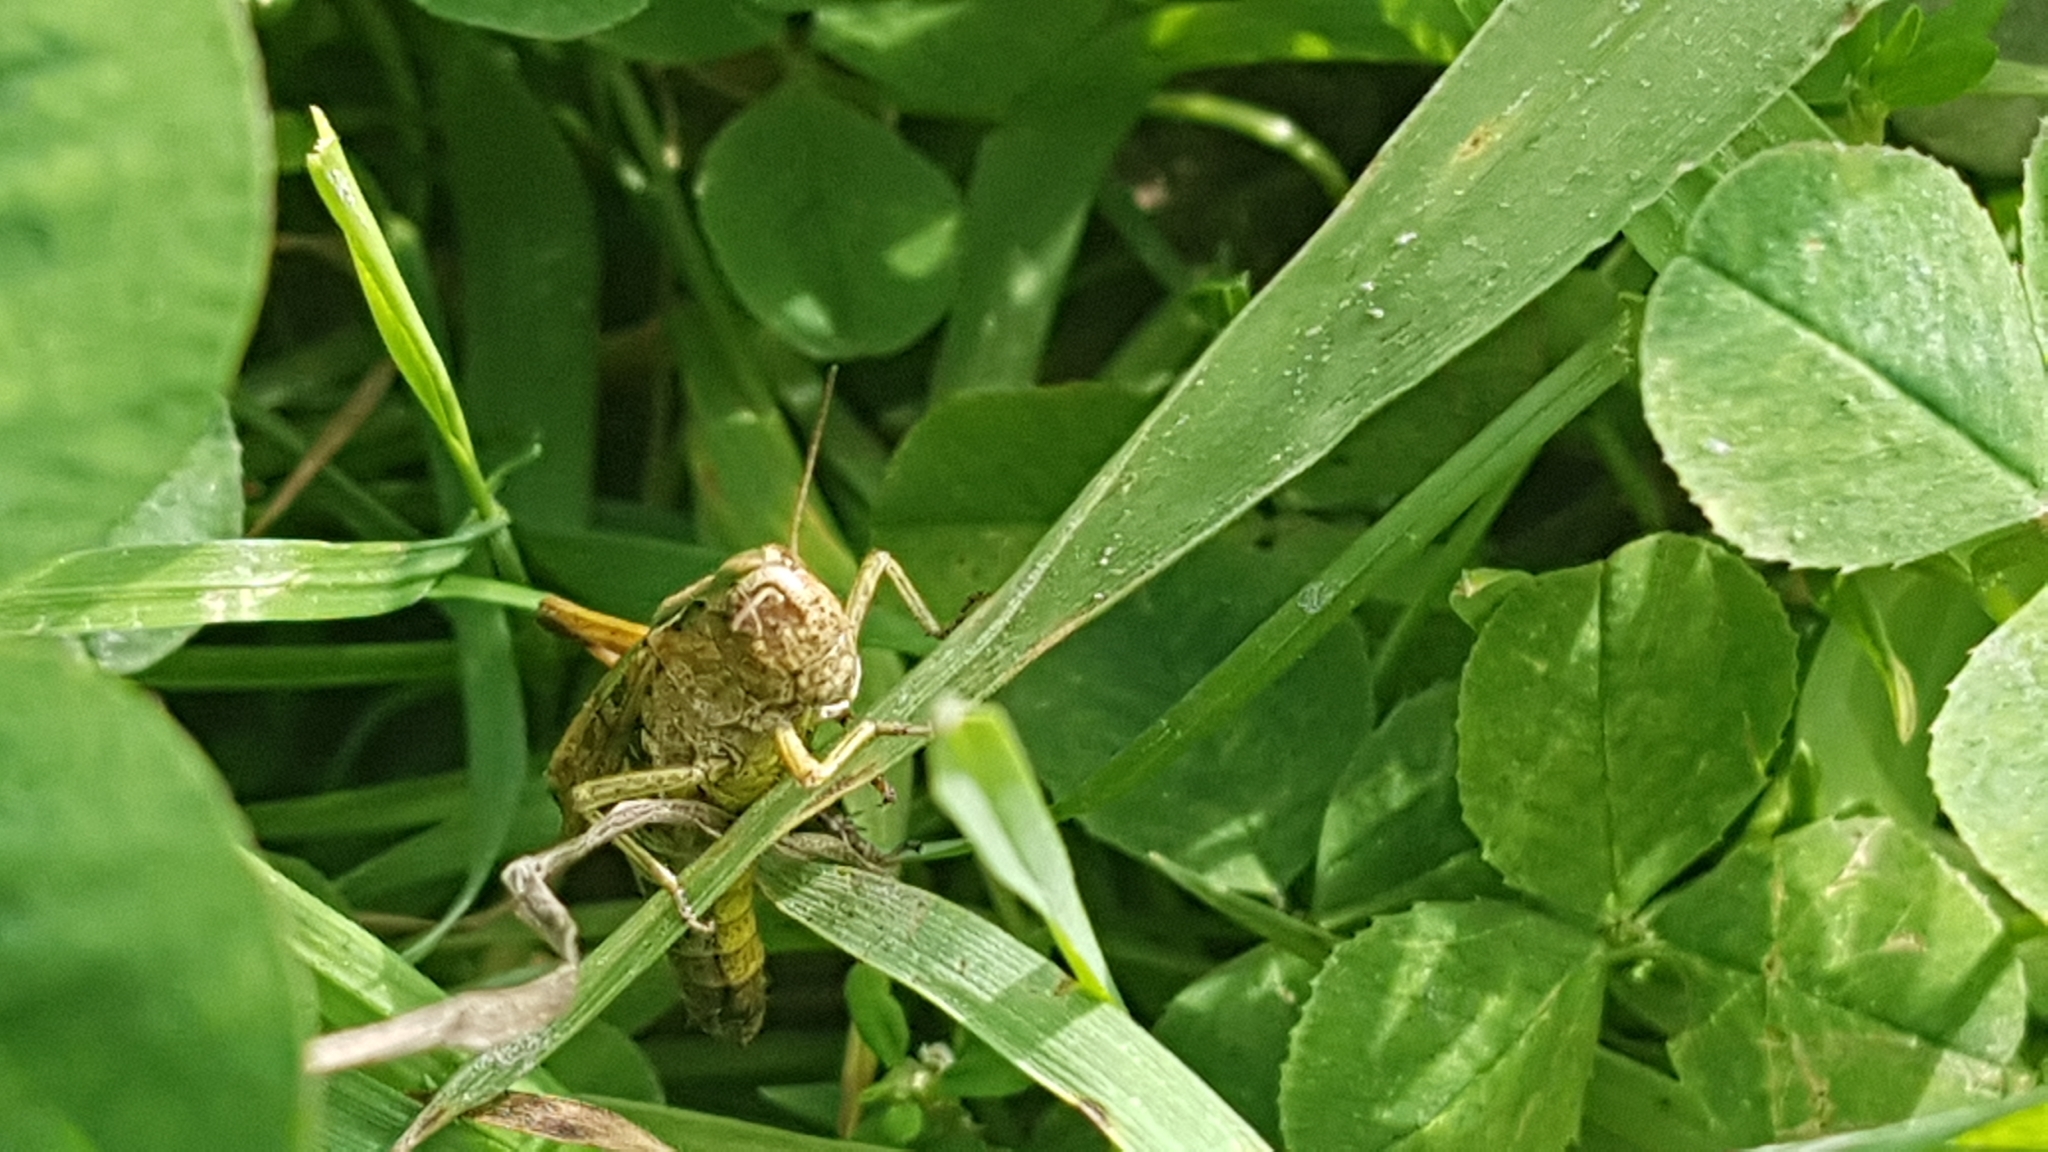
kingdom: Animalia
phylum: Arthropoda
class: Insecta
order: Orthoptera
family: Acrididae
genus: Omocestus
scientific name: Omocestus viridulus
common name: Common green grasshopper
